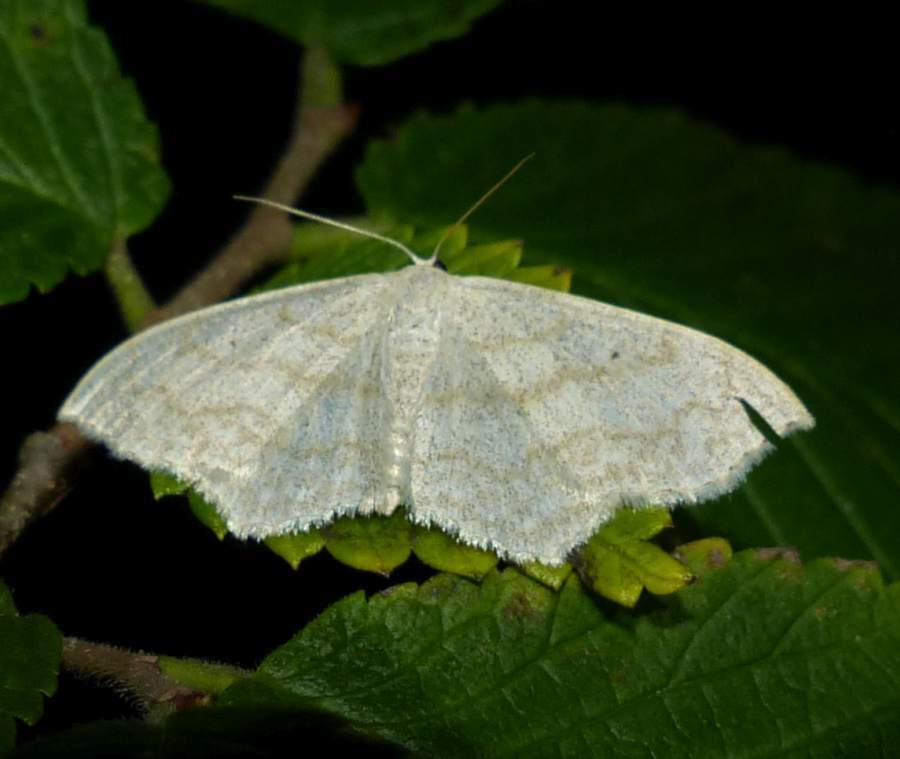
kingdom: Animalia
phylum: Arthropoda
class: Insecta
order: Lepidoptera
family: Geometridae
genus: Scopula
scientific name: Scopula limboundata
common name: Large lace border
